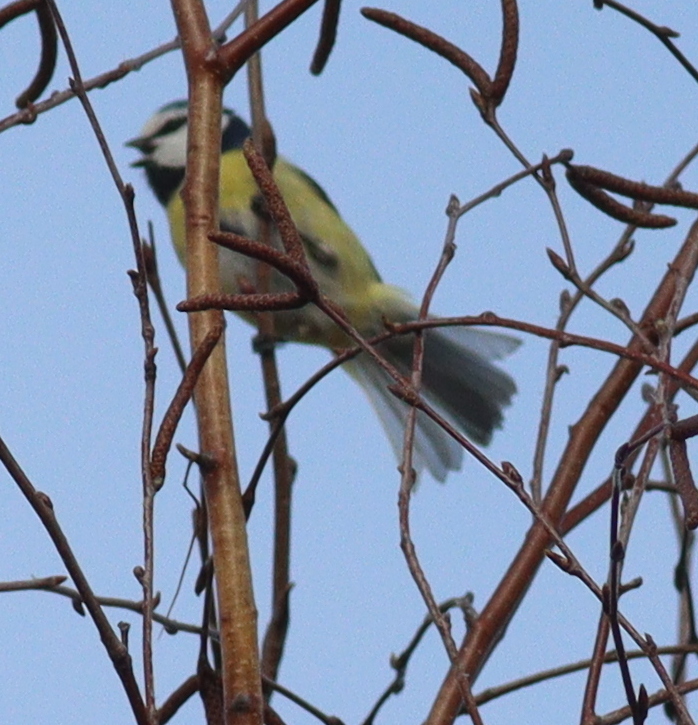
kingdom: Animalia
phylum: Chordata
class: Aves
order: Passeriformes
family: Paridae
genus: Cyanistes
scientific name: Cyanistes caeruleus
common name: Eurasian blue tit
